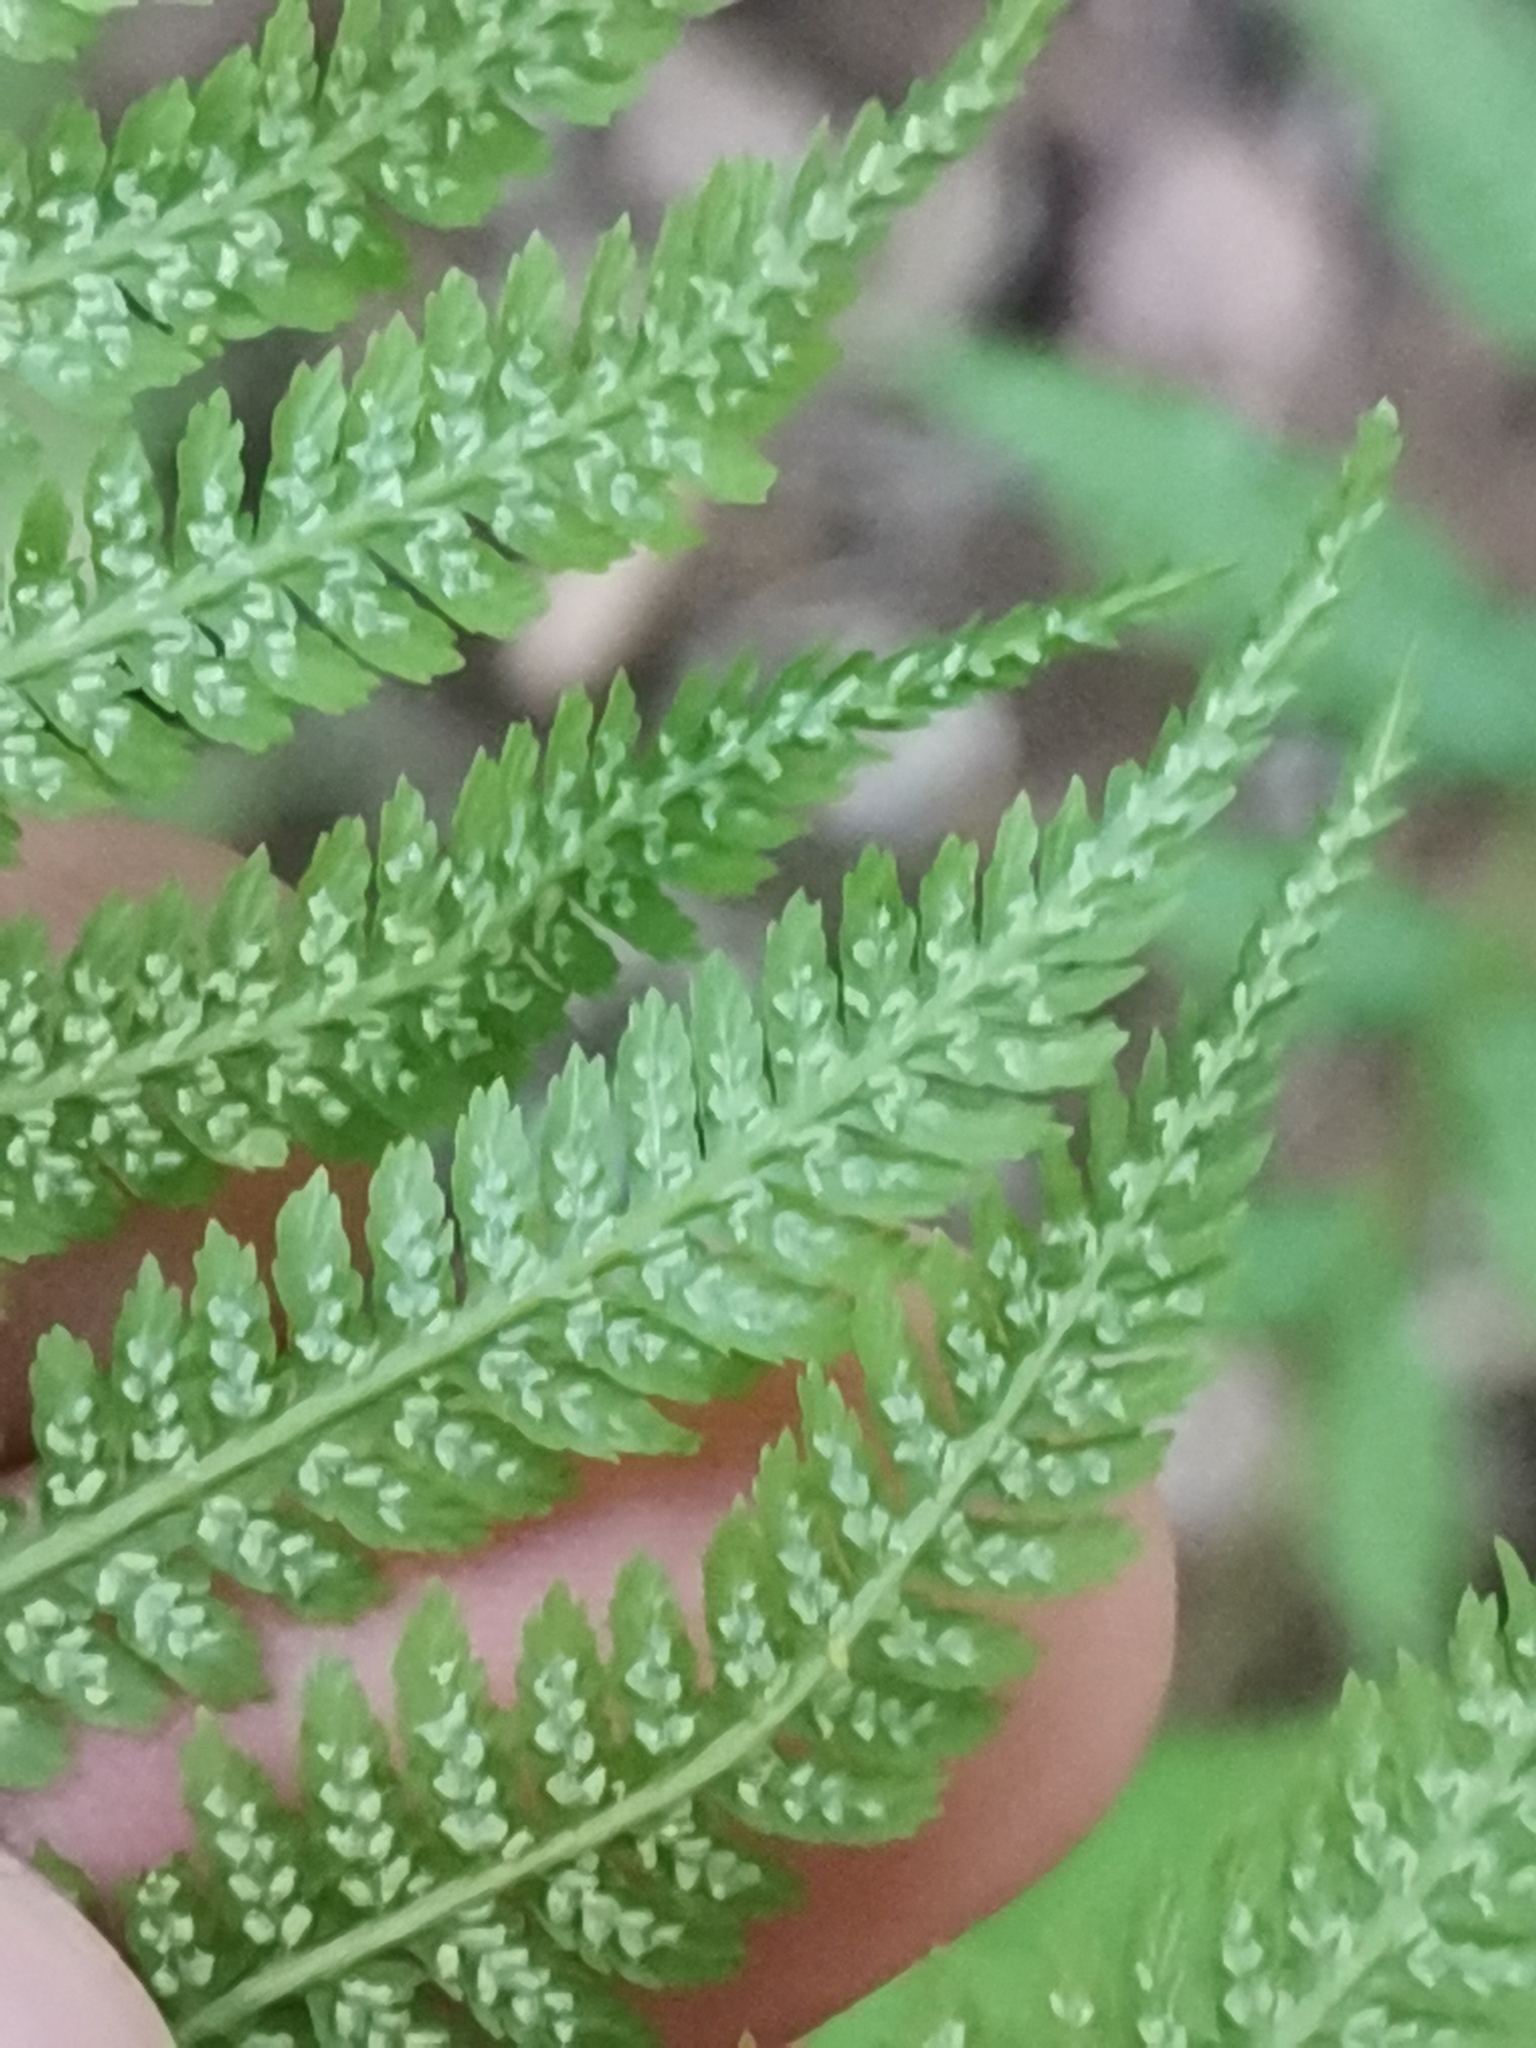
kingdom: Plantae
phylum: Tracheophyta
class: Polypodiopsida
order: Polypodiales
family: Athyriaceae
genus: Athyrium
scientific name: Athyrium filix-femina
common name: Lady fern
